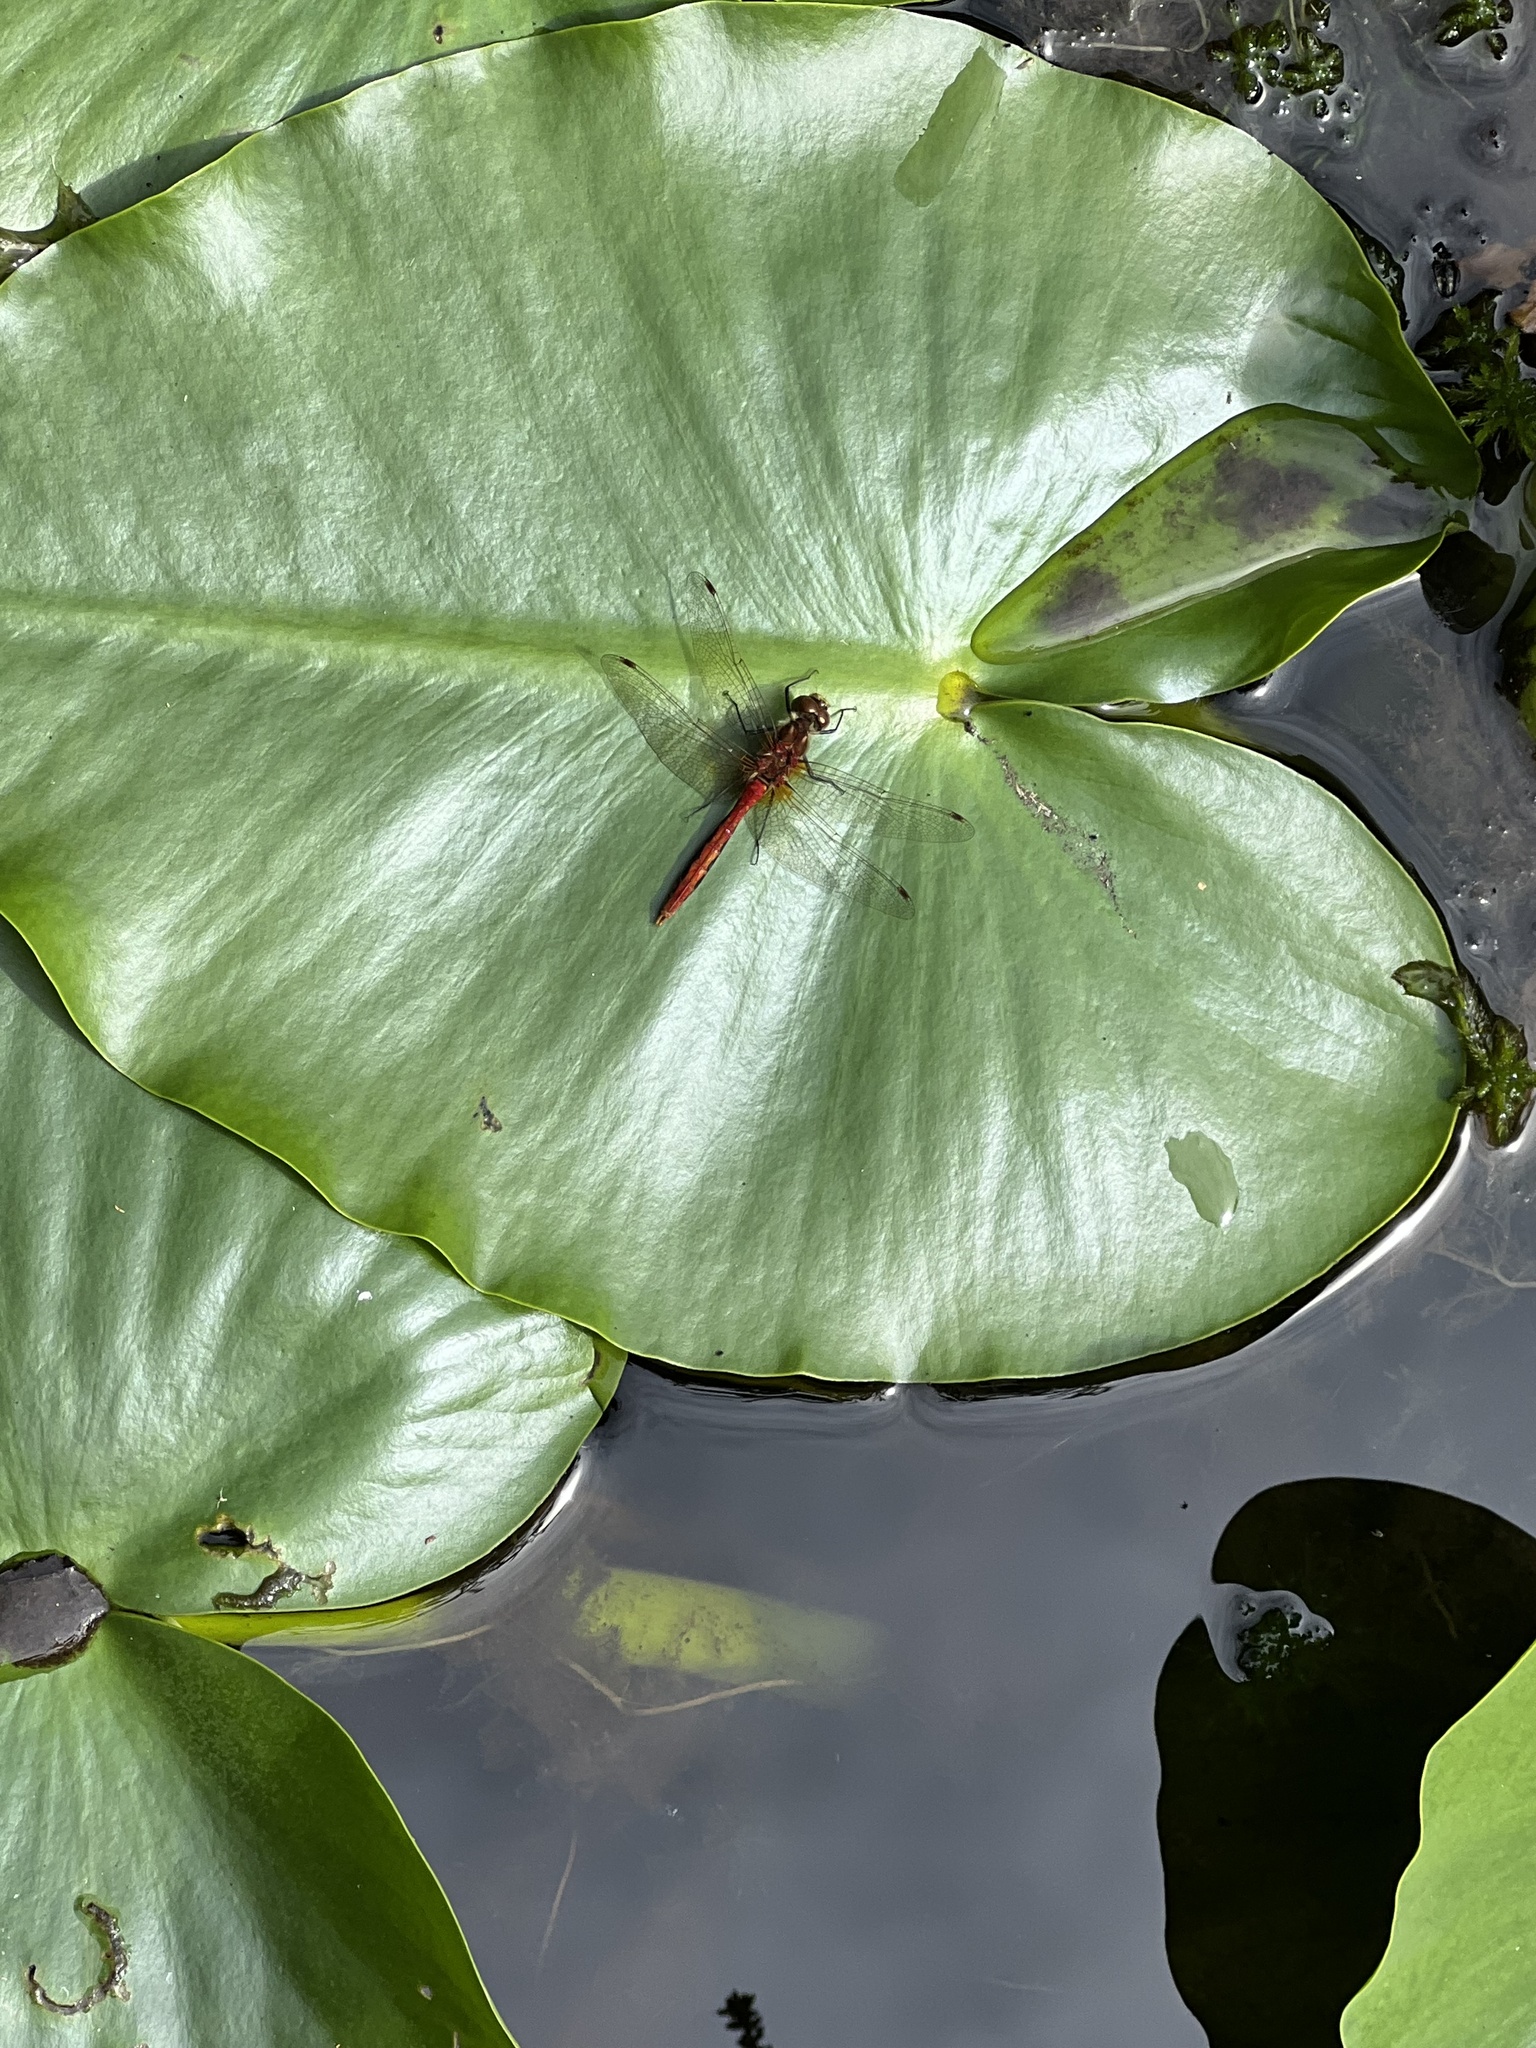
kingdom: Animalia
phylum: Arthropoda
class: Insecta
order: Odonata
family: Libellulidae
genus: Sympetrum
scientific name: Sympetrum pallipes
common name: Striped meadowhawk
